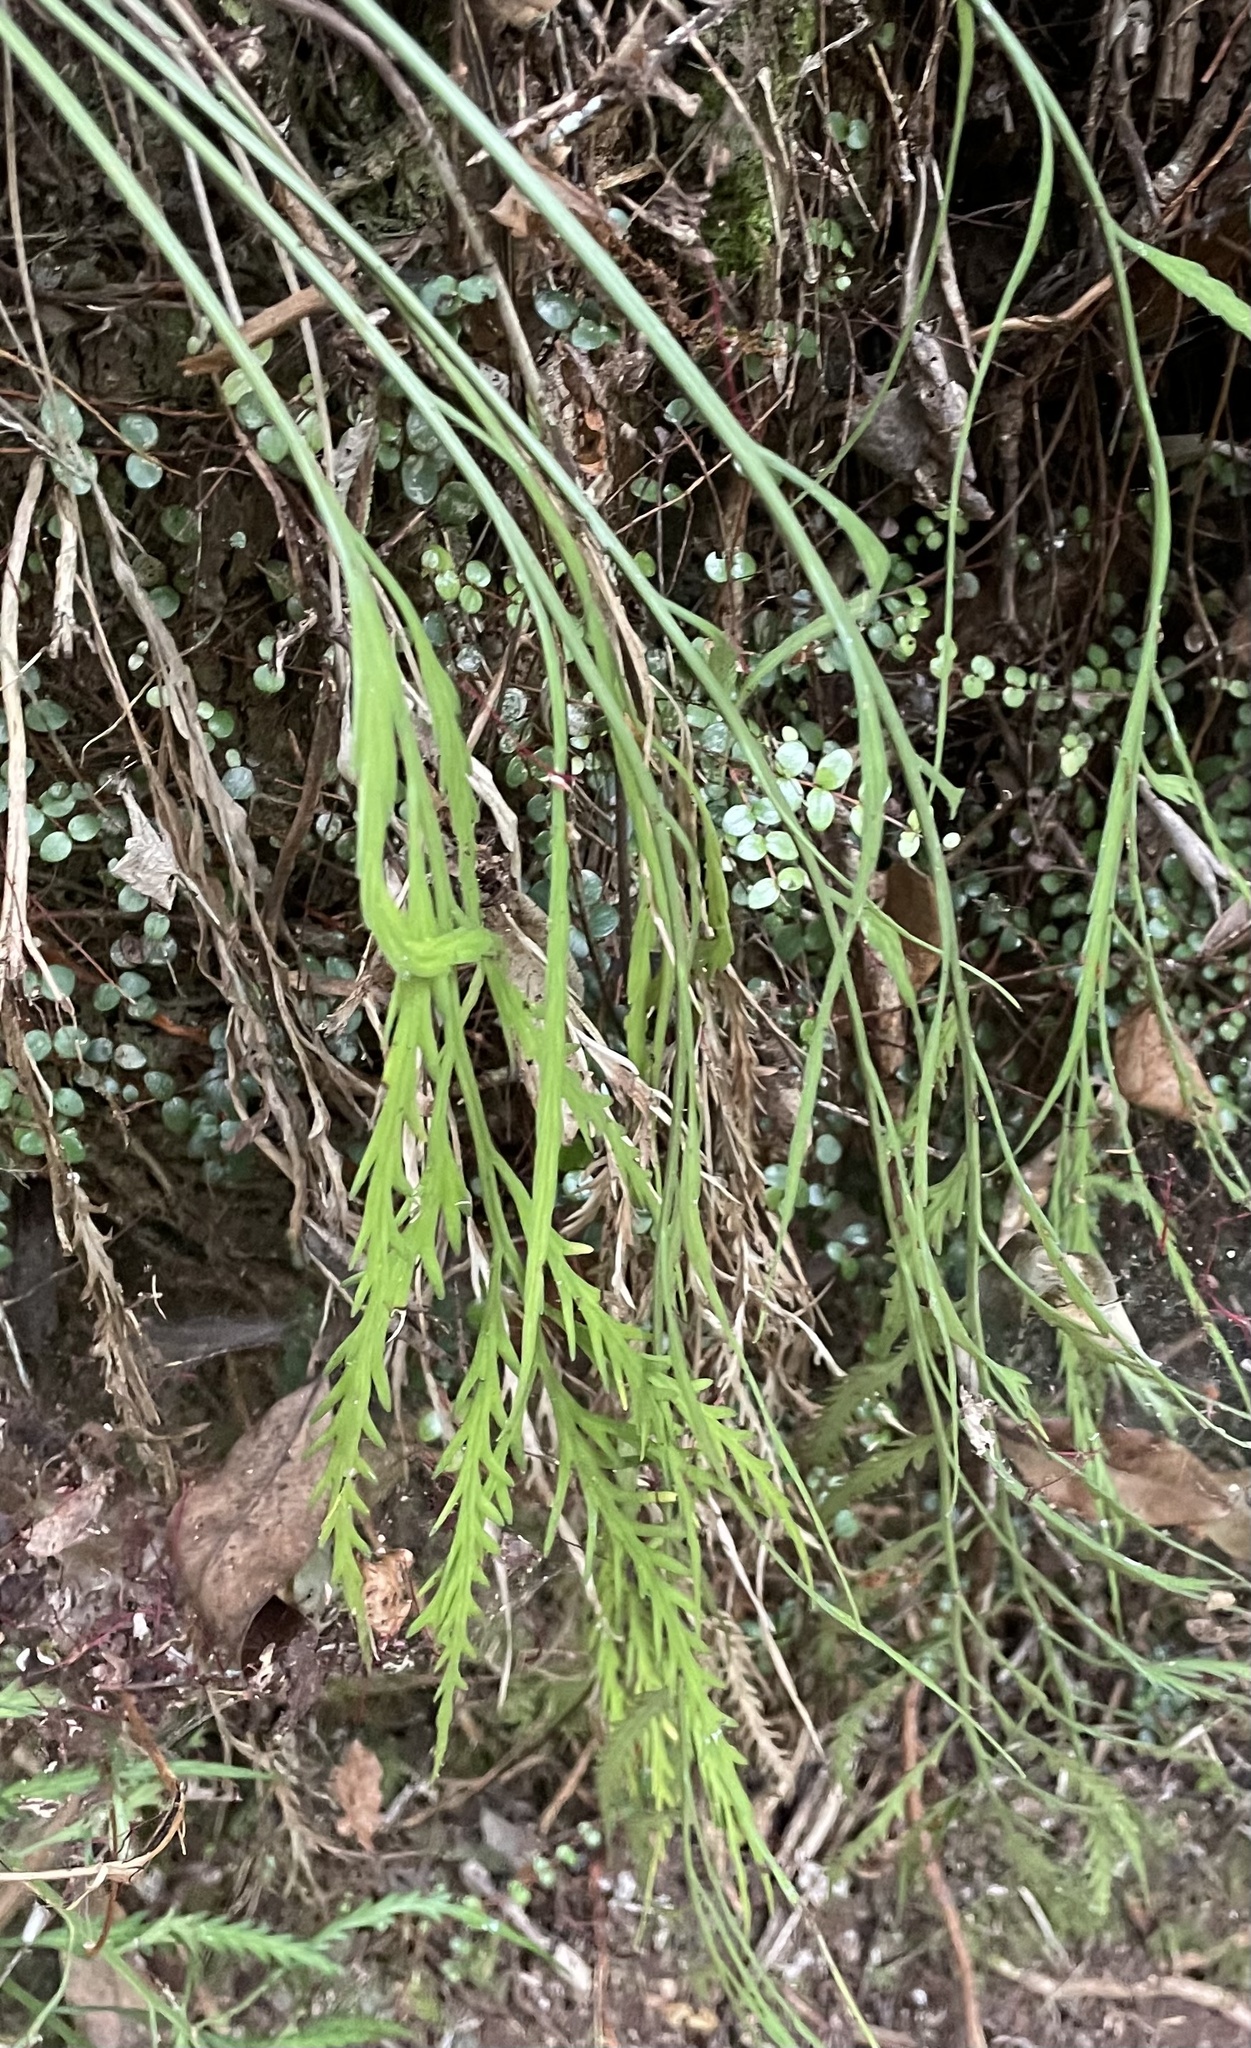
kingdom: Plantae
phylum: Tracheophyta
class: Polypodiopsida
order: Polypodiales
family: Aspleniaceae
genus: Asplenium
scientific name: Asplenium flaccidum
